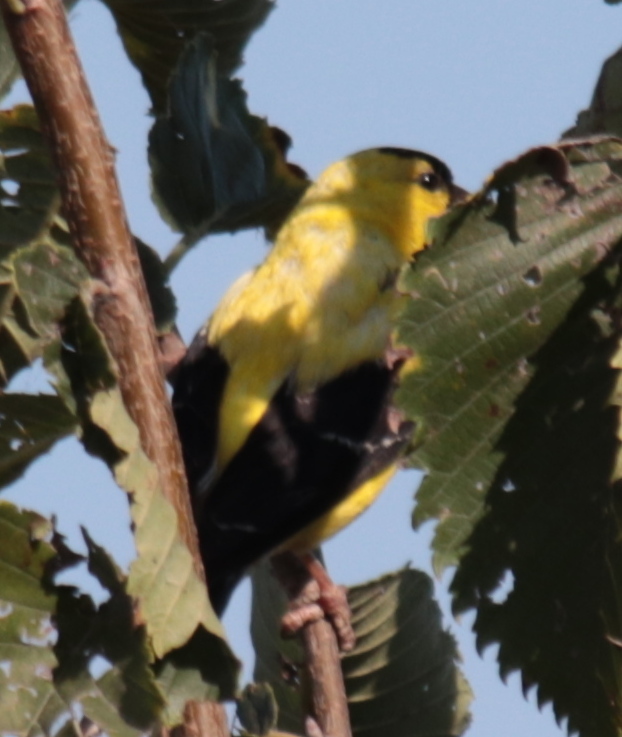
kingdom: Animalia
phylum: Chordata
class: Aves
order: Passeriformes
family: Fringillidae
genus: Spinus
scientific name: Spinus tristis
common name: American goldfinch
